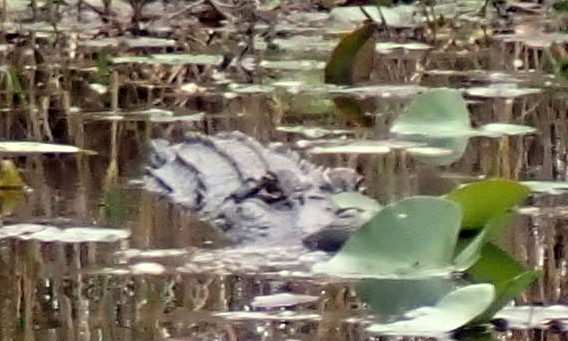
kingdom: Animalia
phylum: Chordata
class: Crocodylia
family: Alligatoridae
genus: Alligator
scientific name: Alligator mississippiensis
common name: American alligator
